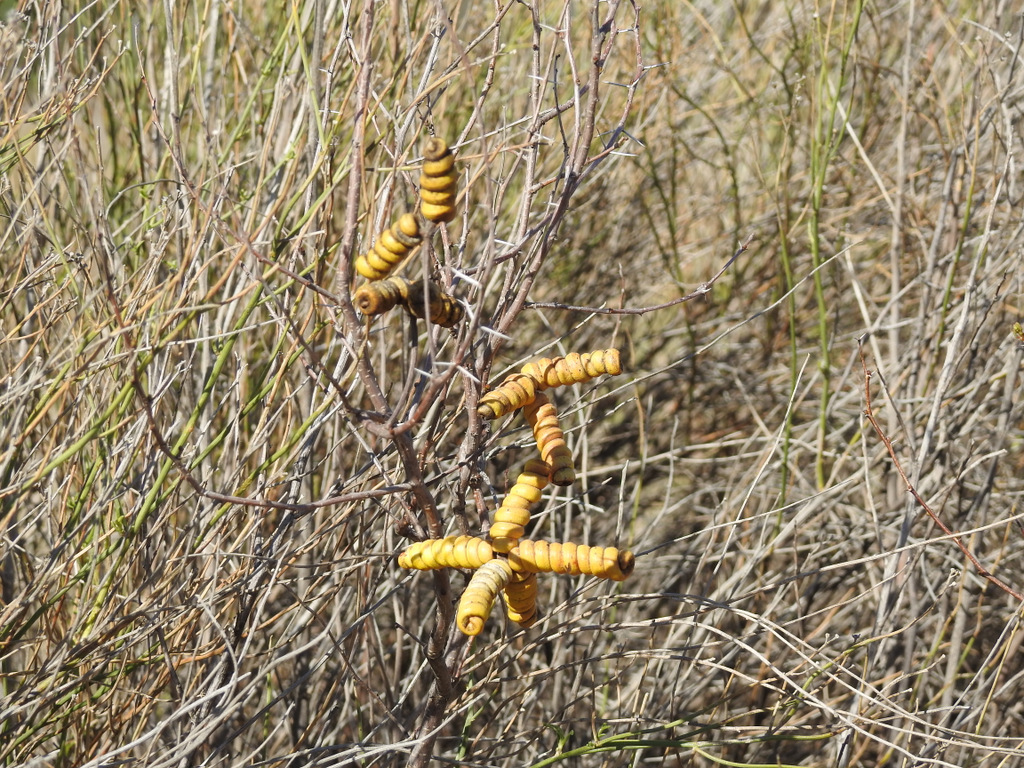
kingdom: Plantae
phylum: Tracheophyta
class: Magnoliopsida
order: Fabales
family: Fabaceae
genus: Prosopis
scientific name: Prosopis strombulifera
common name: Creeping mesquite
